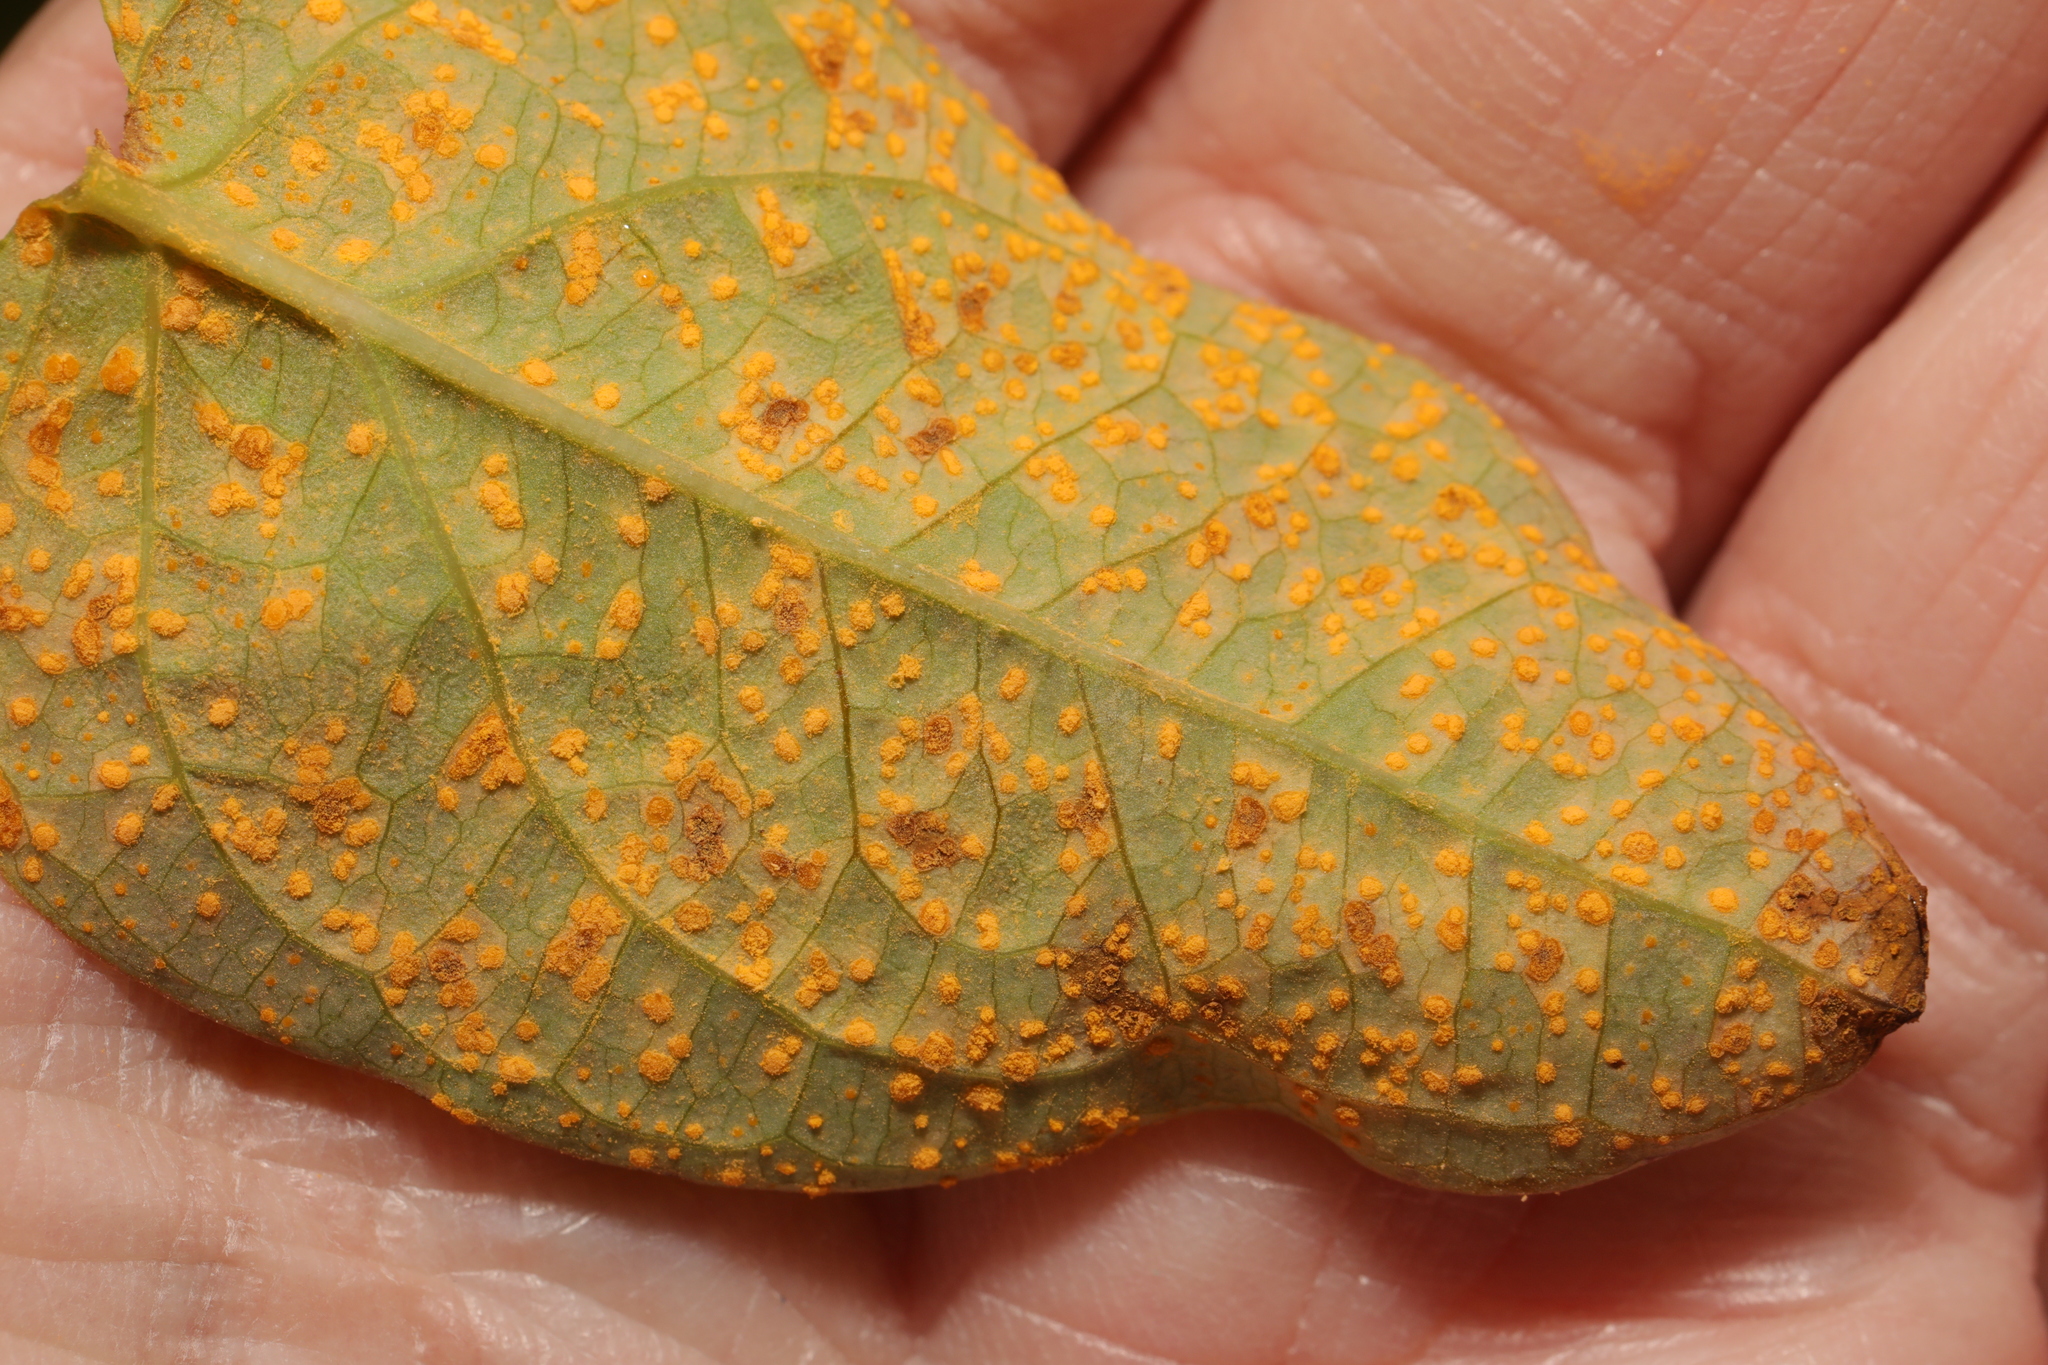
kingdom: Fungi
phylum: Basidiomycota
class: Pucciniomycetes
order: Pucciniales
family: Melampsoraceae
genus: Melampsora
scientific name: Melampsora
